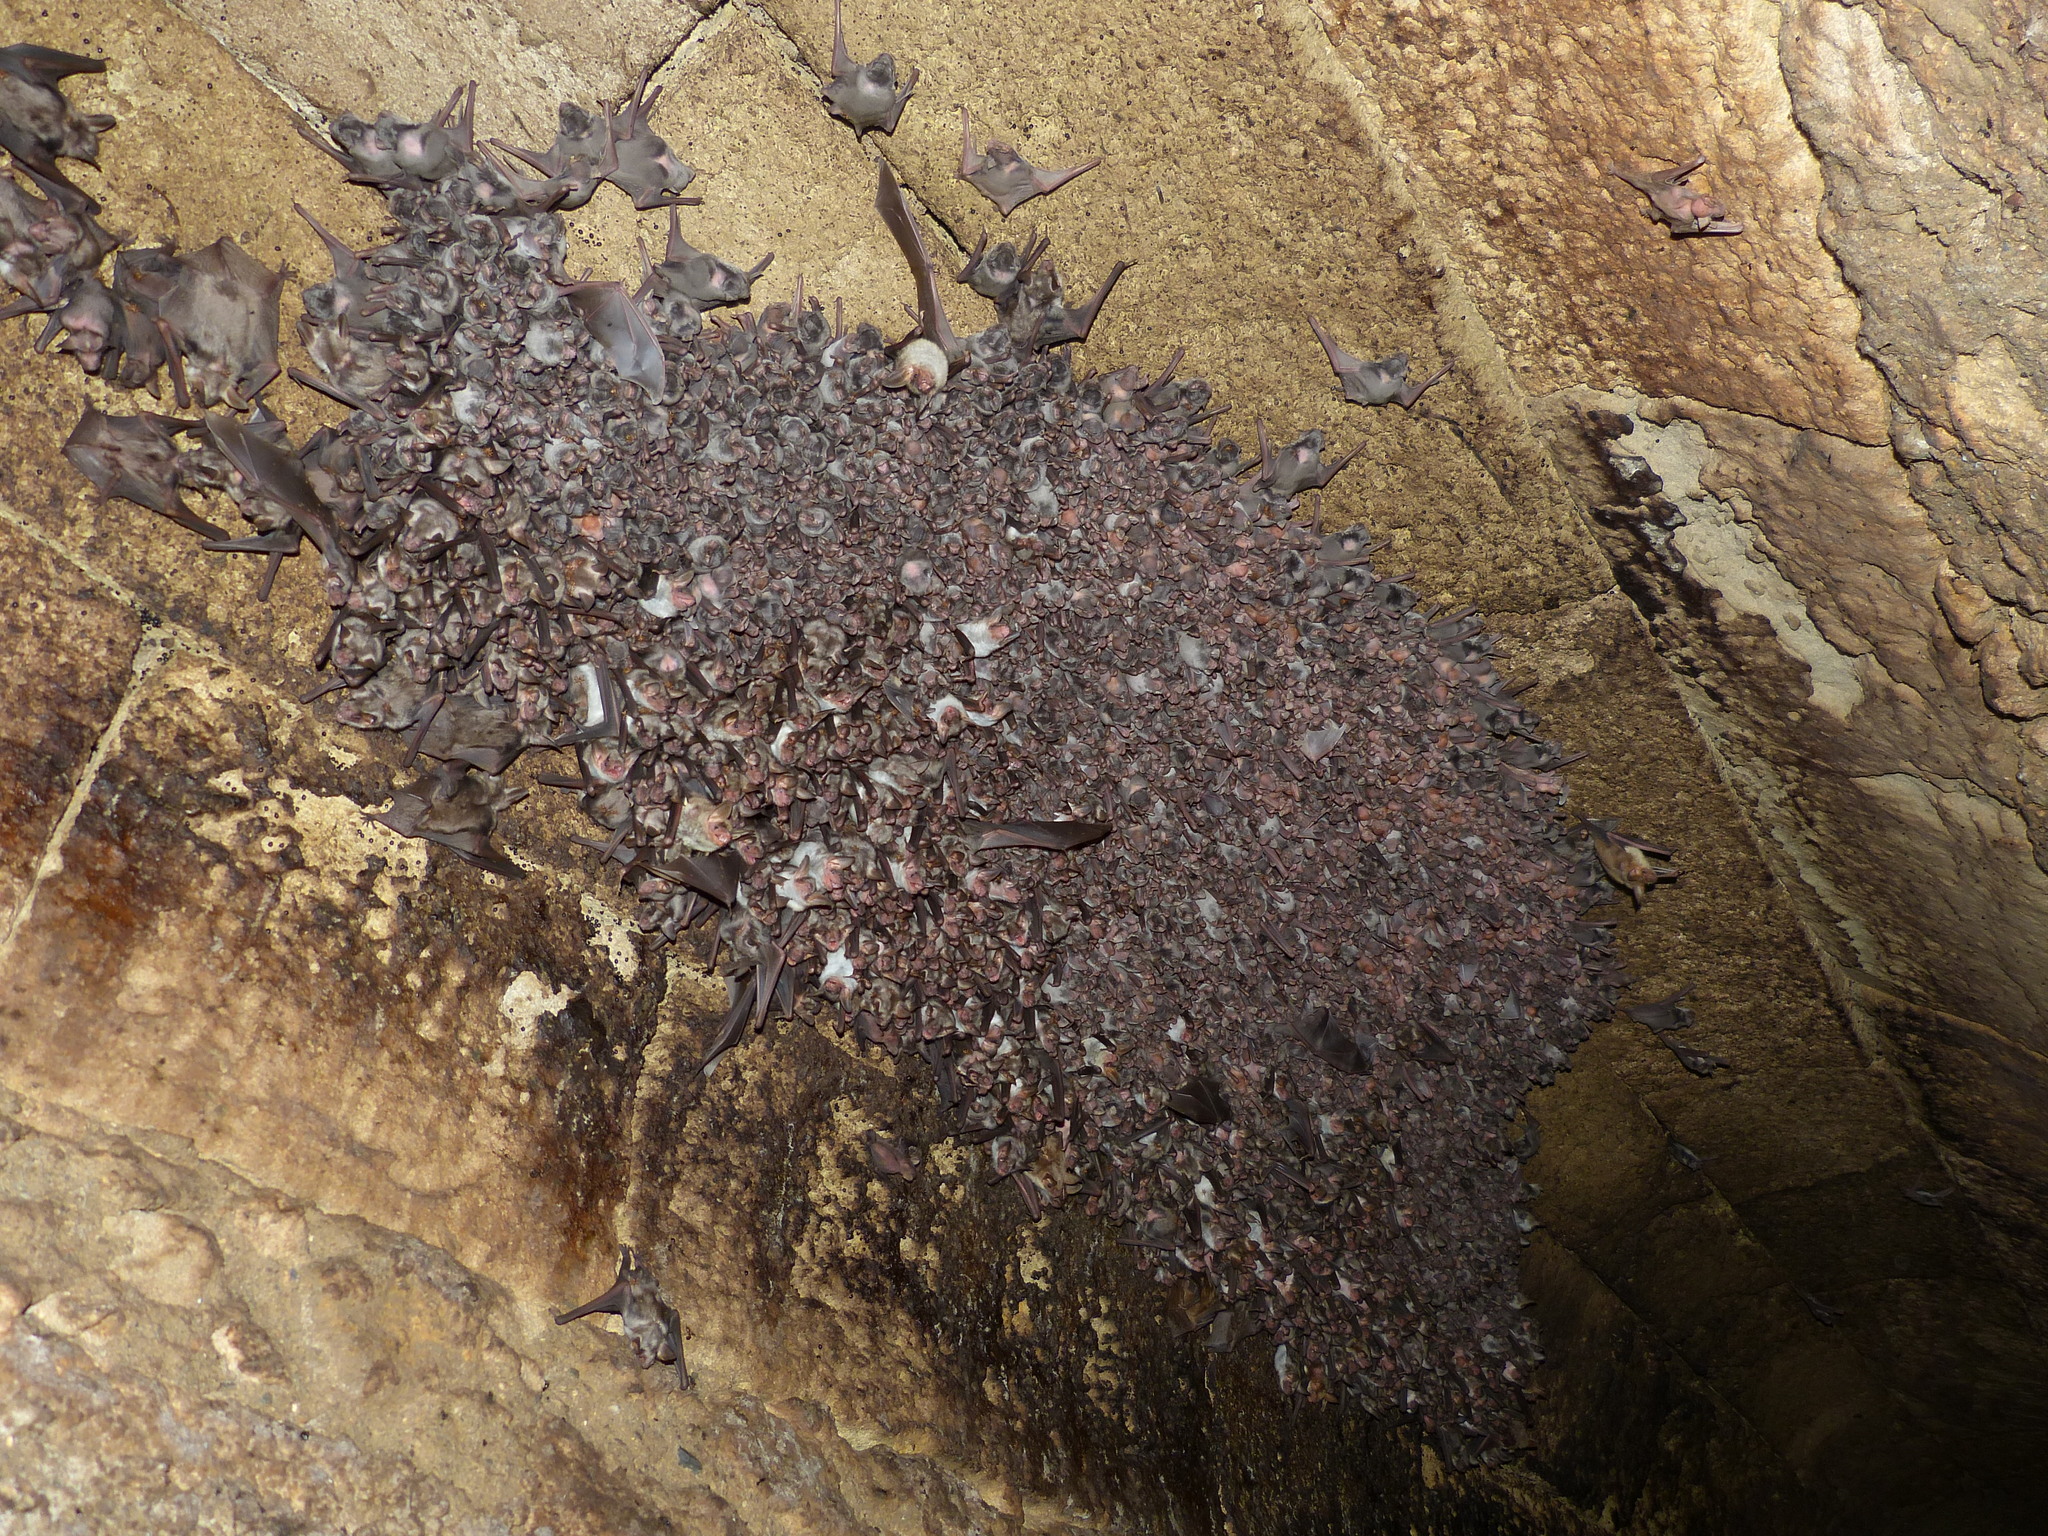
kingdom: Animalia
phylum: Chordata
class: Mammalia
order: Chiroptera
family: Miniopteridae
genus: Miniopterus
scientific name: Miniopterus schreibersii
